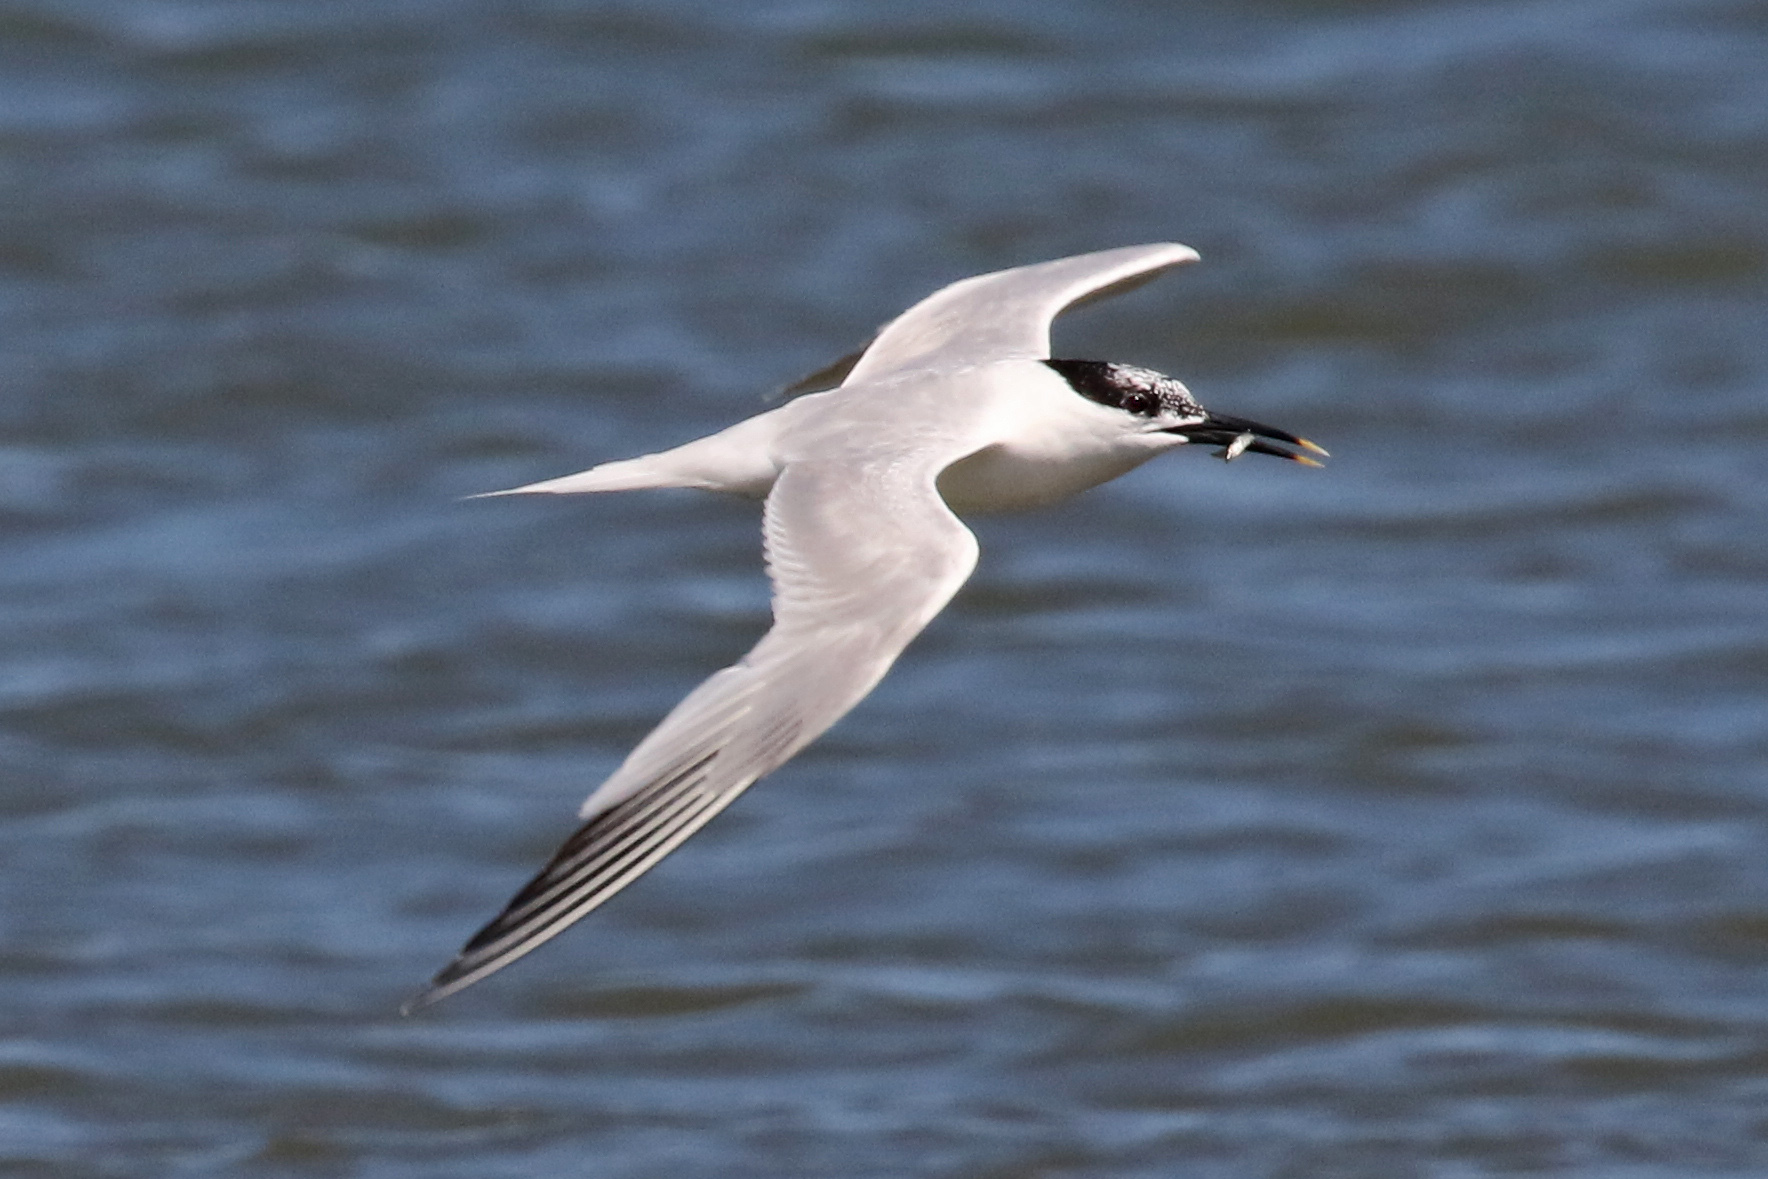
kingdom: Animalia
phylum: Chordata
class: Aves
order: Charadriiformes
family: Laridae
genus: Thalasseus
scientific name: Thalasseus sandvicensis
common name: Sandwich tern
